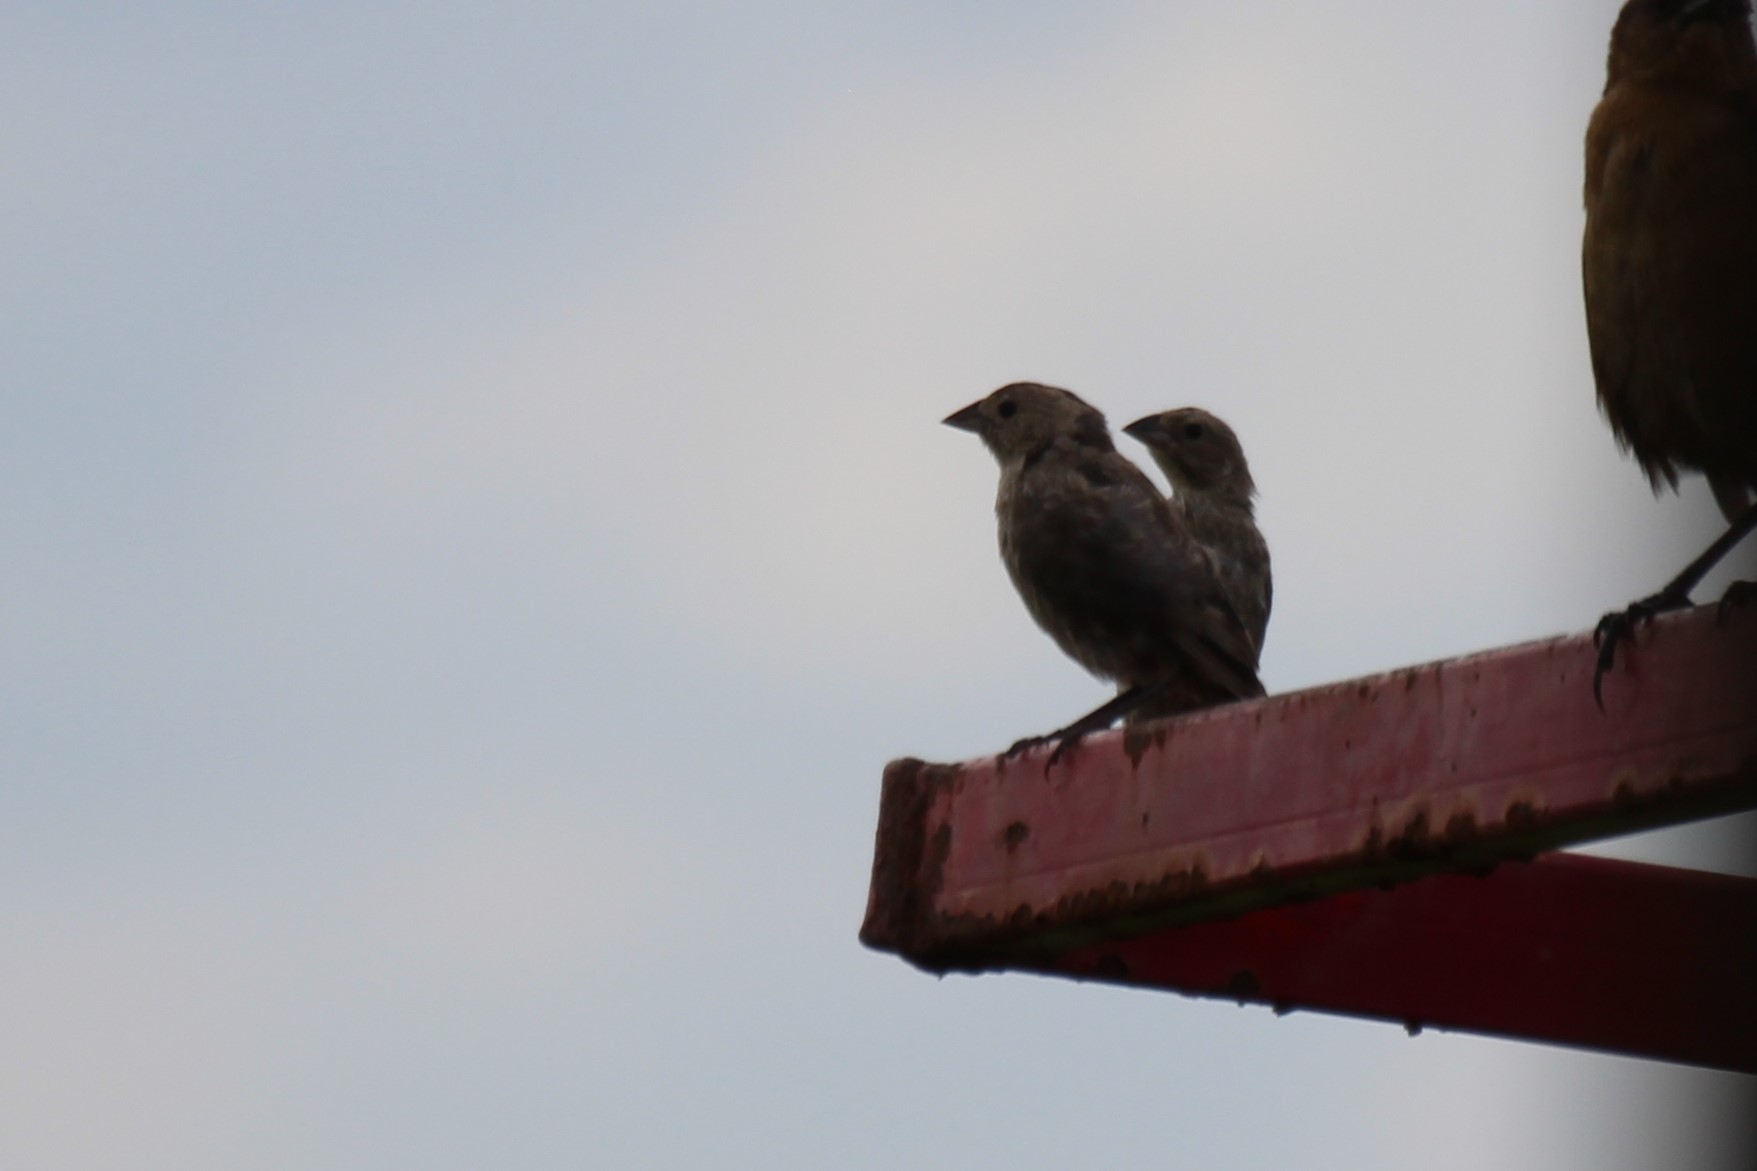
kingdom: Animalia
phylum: Chordata
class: Aves
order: Passeriformes
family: Icteridae
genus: Molothrus
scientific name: Molothrus ater
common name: Brown-headed cowbird
